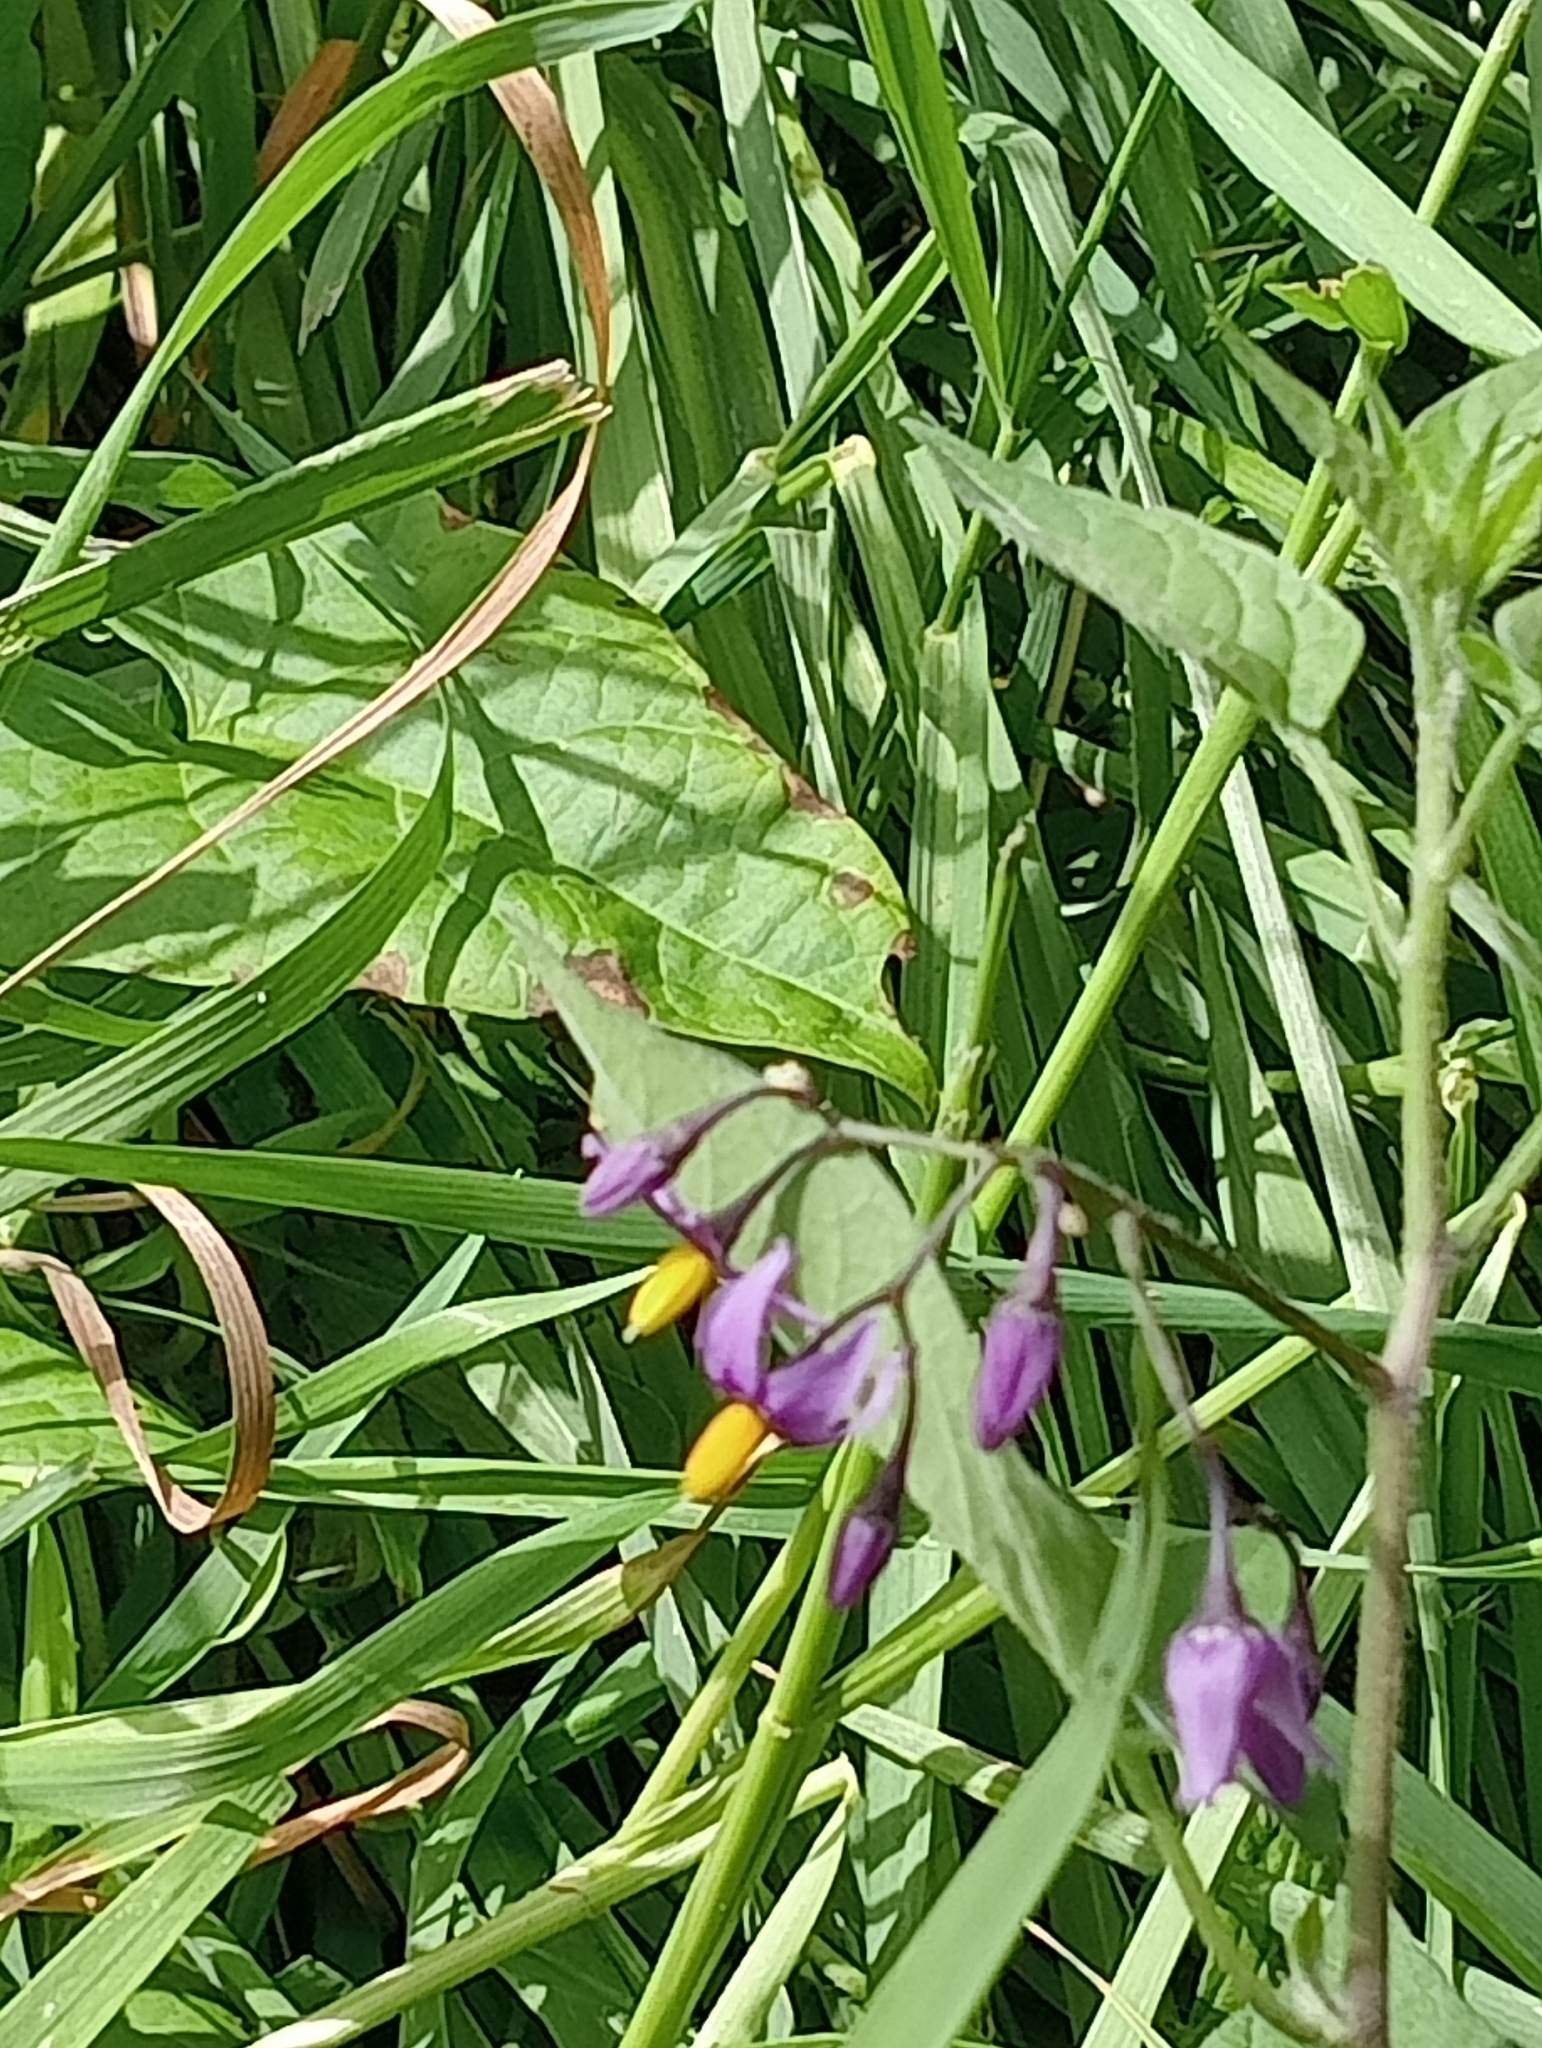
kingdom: Plantae
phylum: Tracheophyta
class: Magnoliopsida
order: Solanales
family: Solanaceae
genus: Solanum
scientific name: Solanum dulcamara
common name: Climbing nightshade
